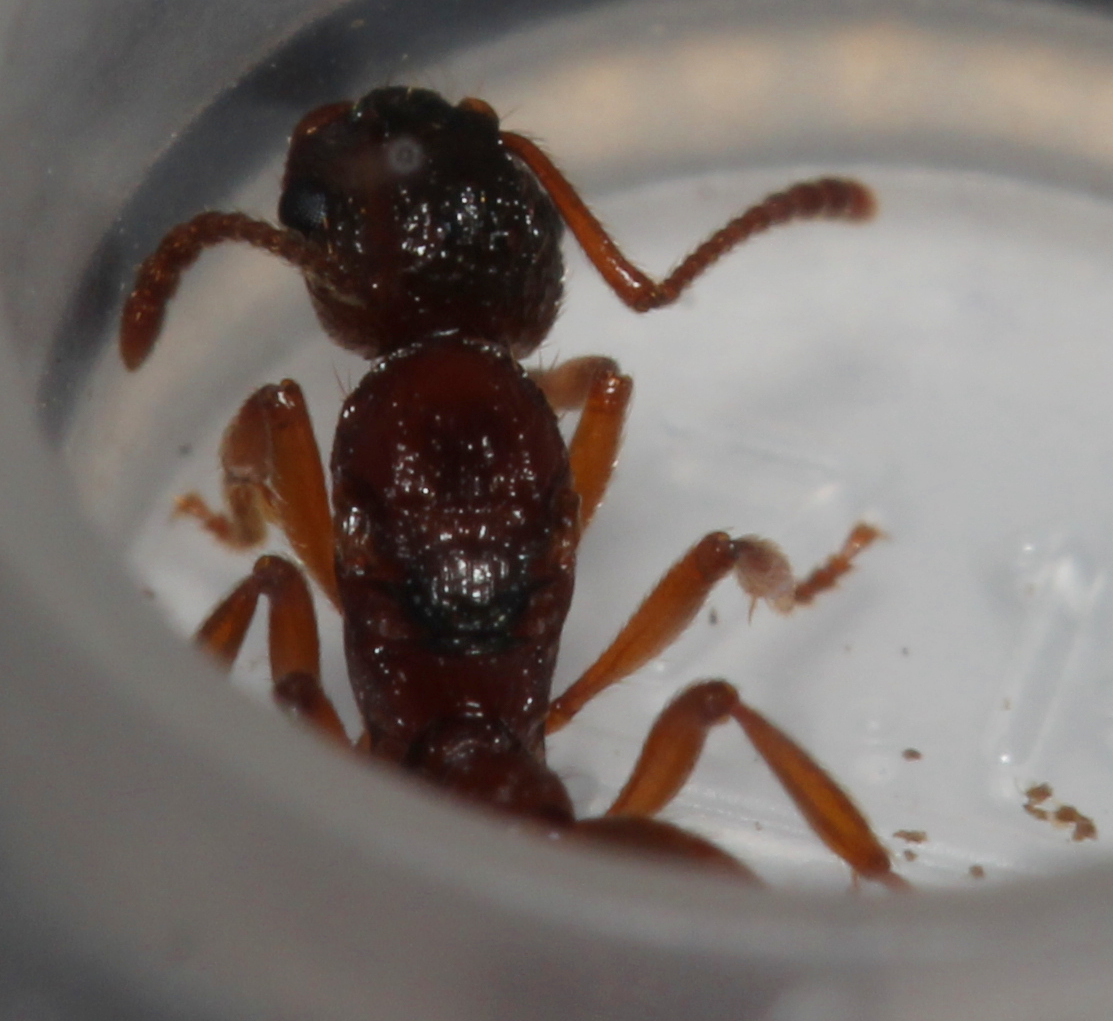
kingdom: Animalia
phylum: Arthropoda
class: Insecta
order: Hymenoptera
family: Formicidae
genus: Myrmica
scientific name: Myrmica
